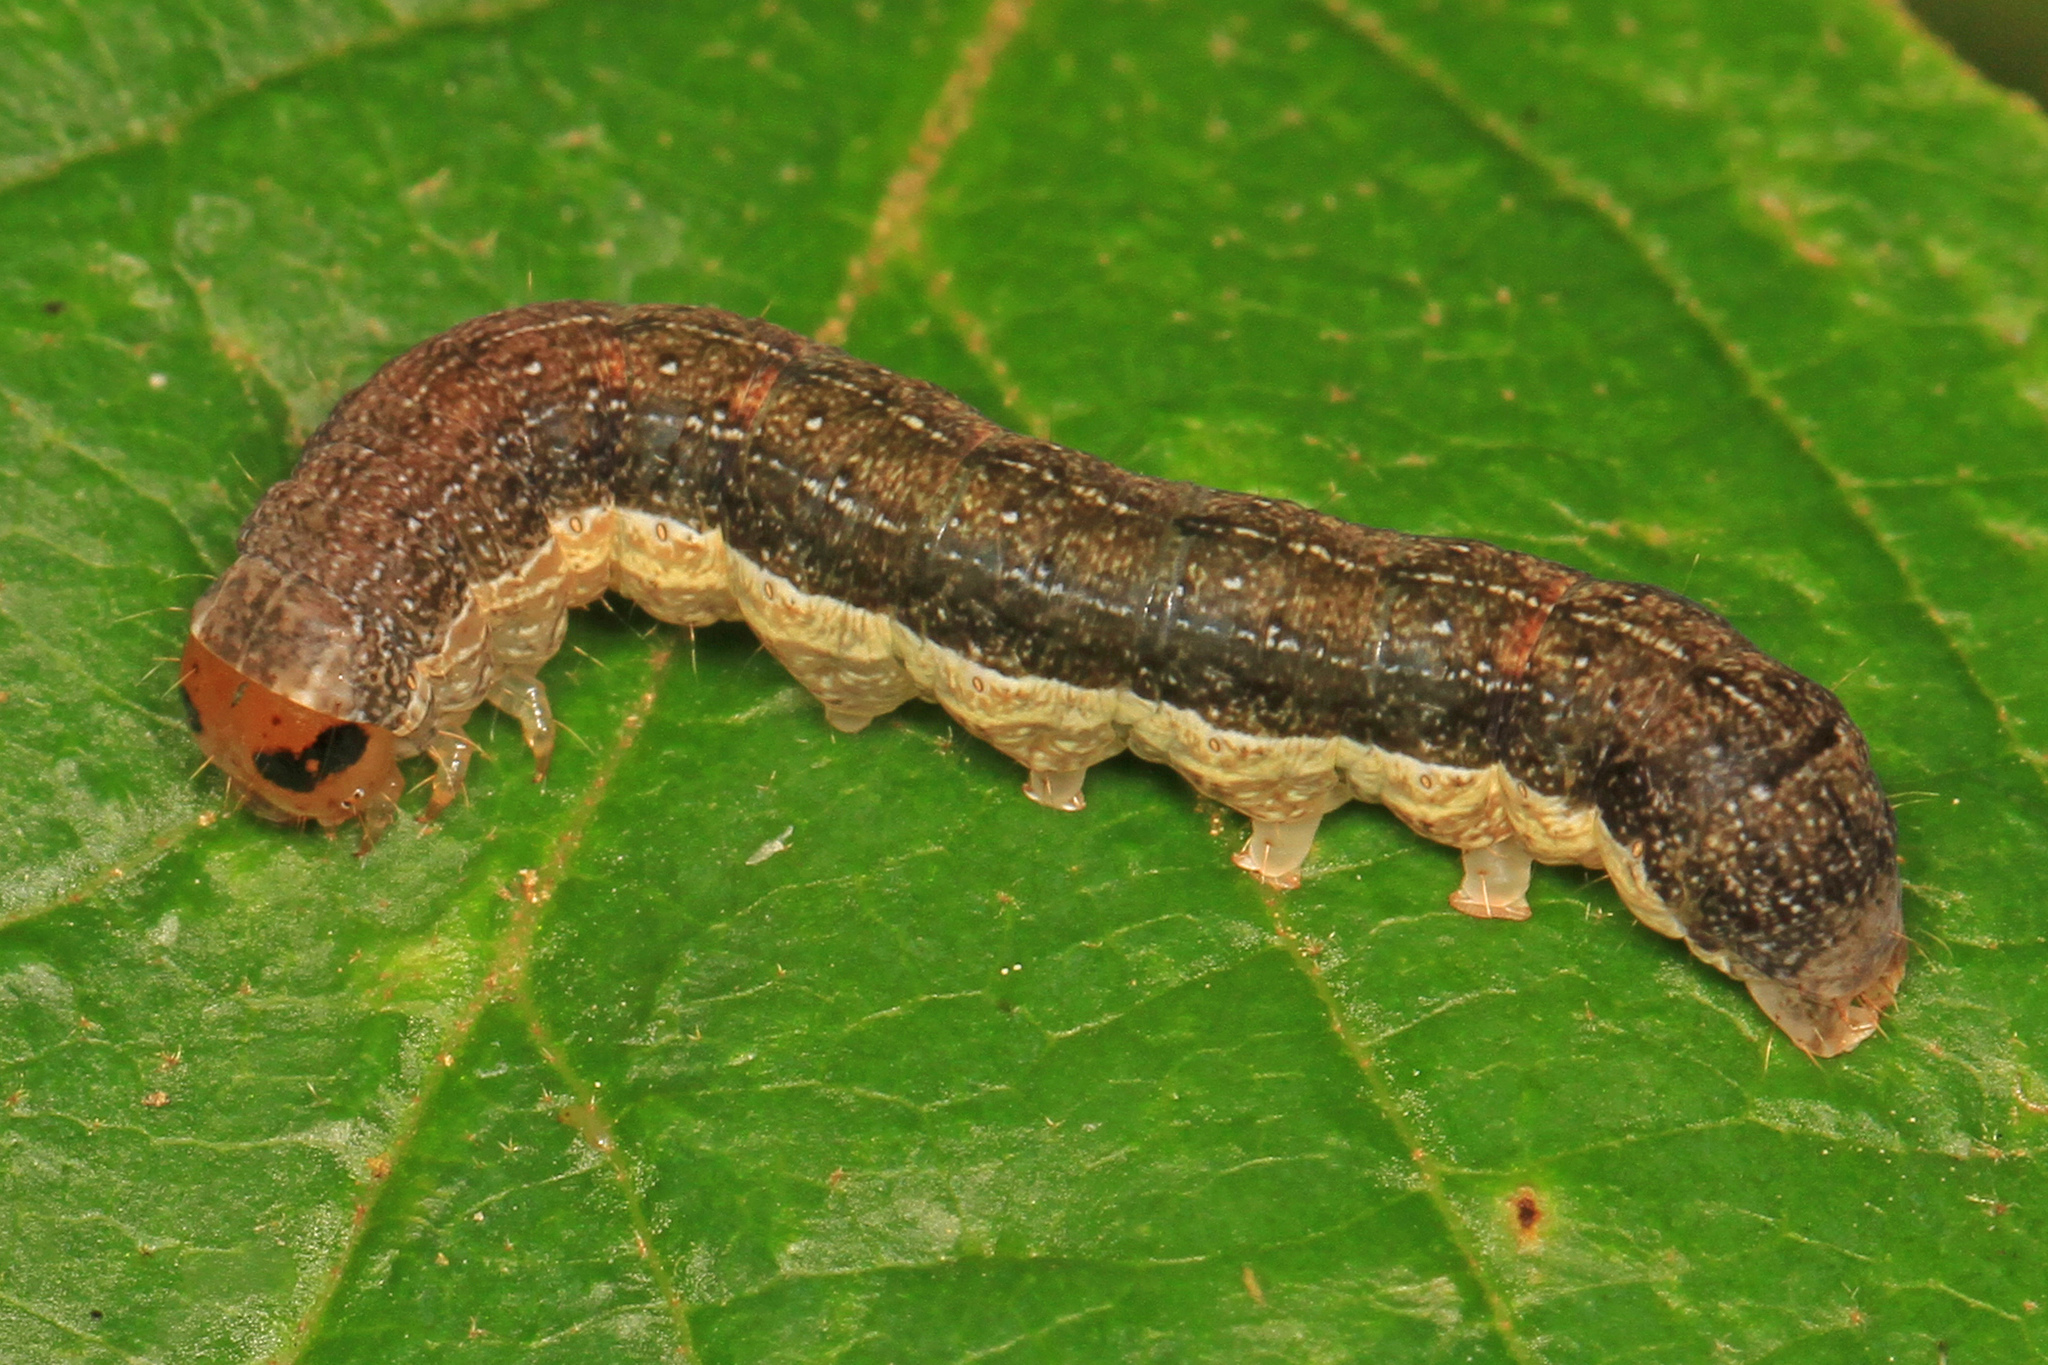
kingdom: Animalia
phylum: Arthropoda
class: Insecta
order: Lepidoptera
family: Noctuidae
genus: Crocigrapha
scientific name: Crocigrapha normani
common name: Norman's quaker
